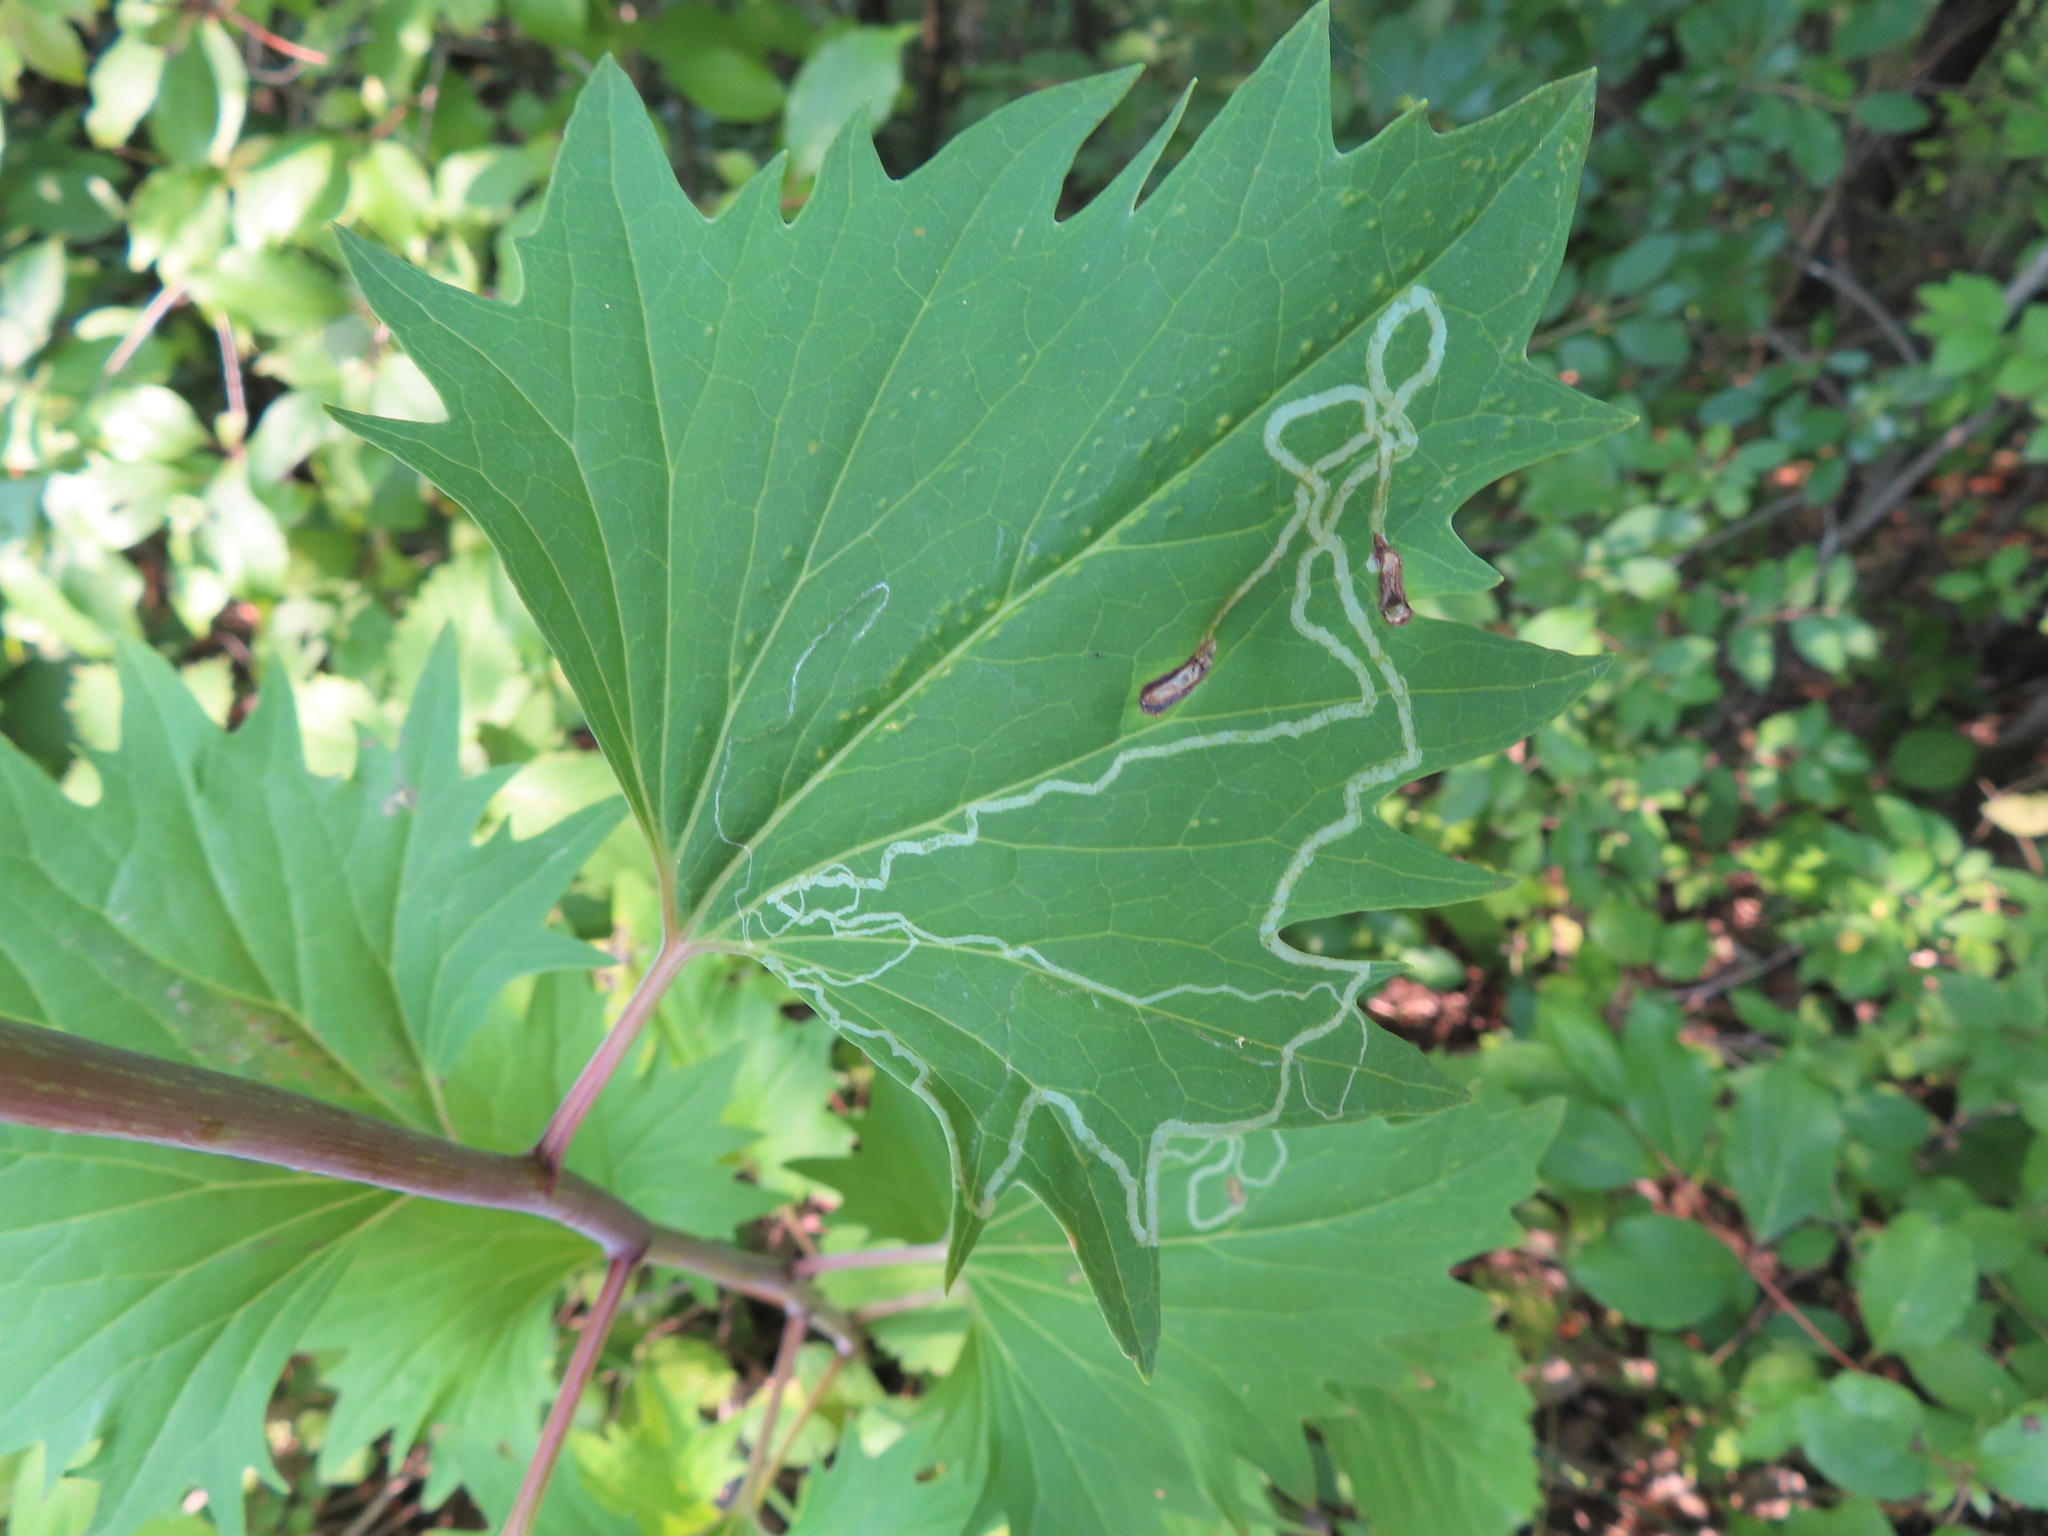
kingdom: Animalia
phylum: Arthropoda
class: Insecta
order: Lepidoptera
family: Gracillariidae
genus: Phyllocnistis
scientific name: Phyllocnistis insignis
